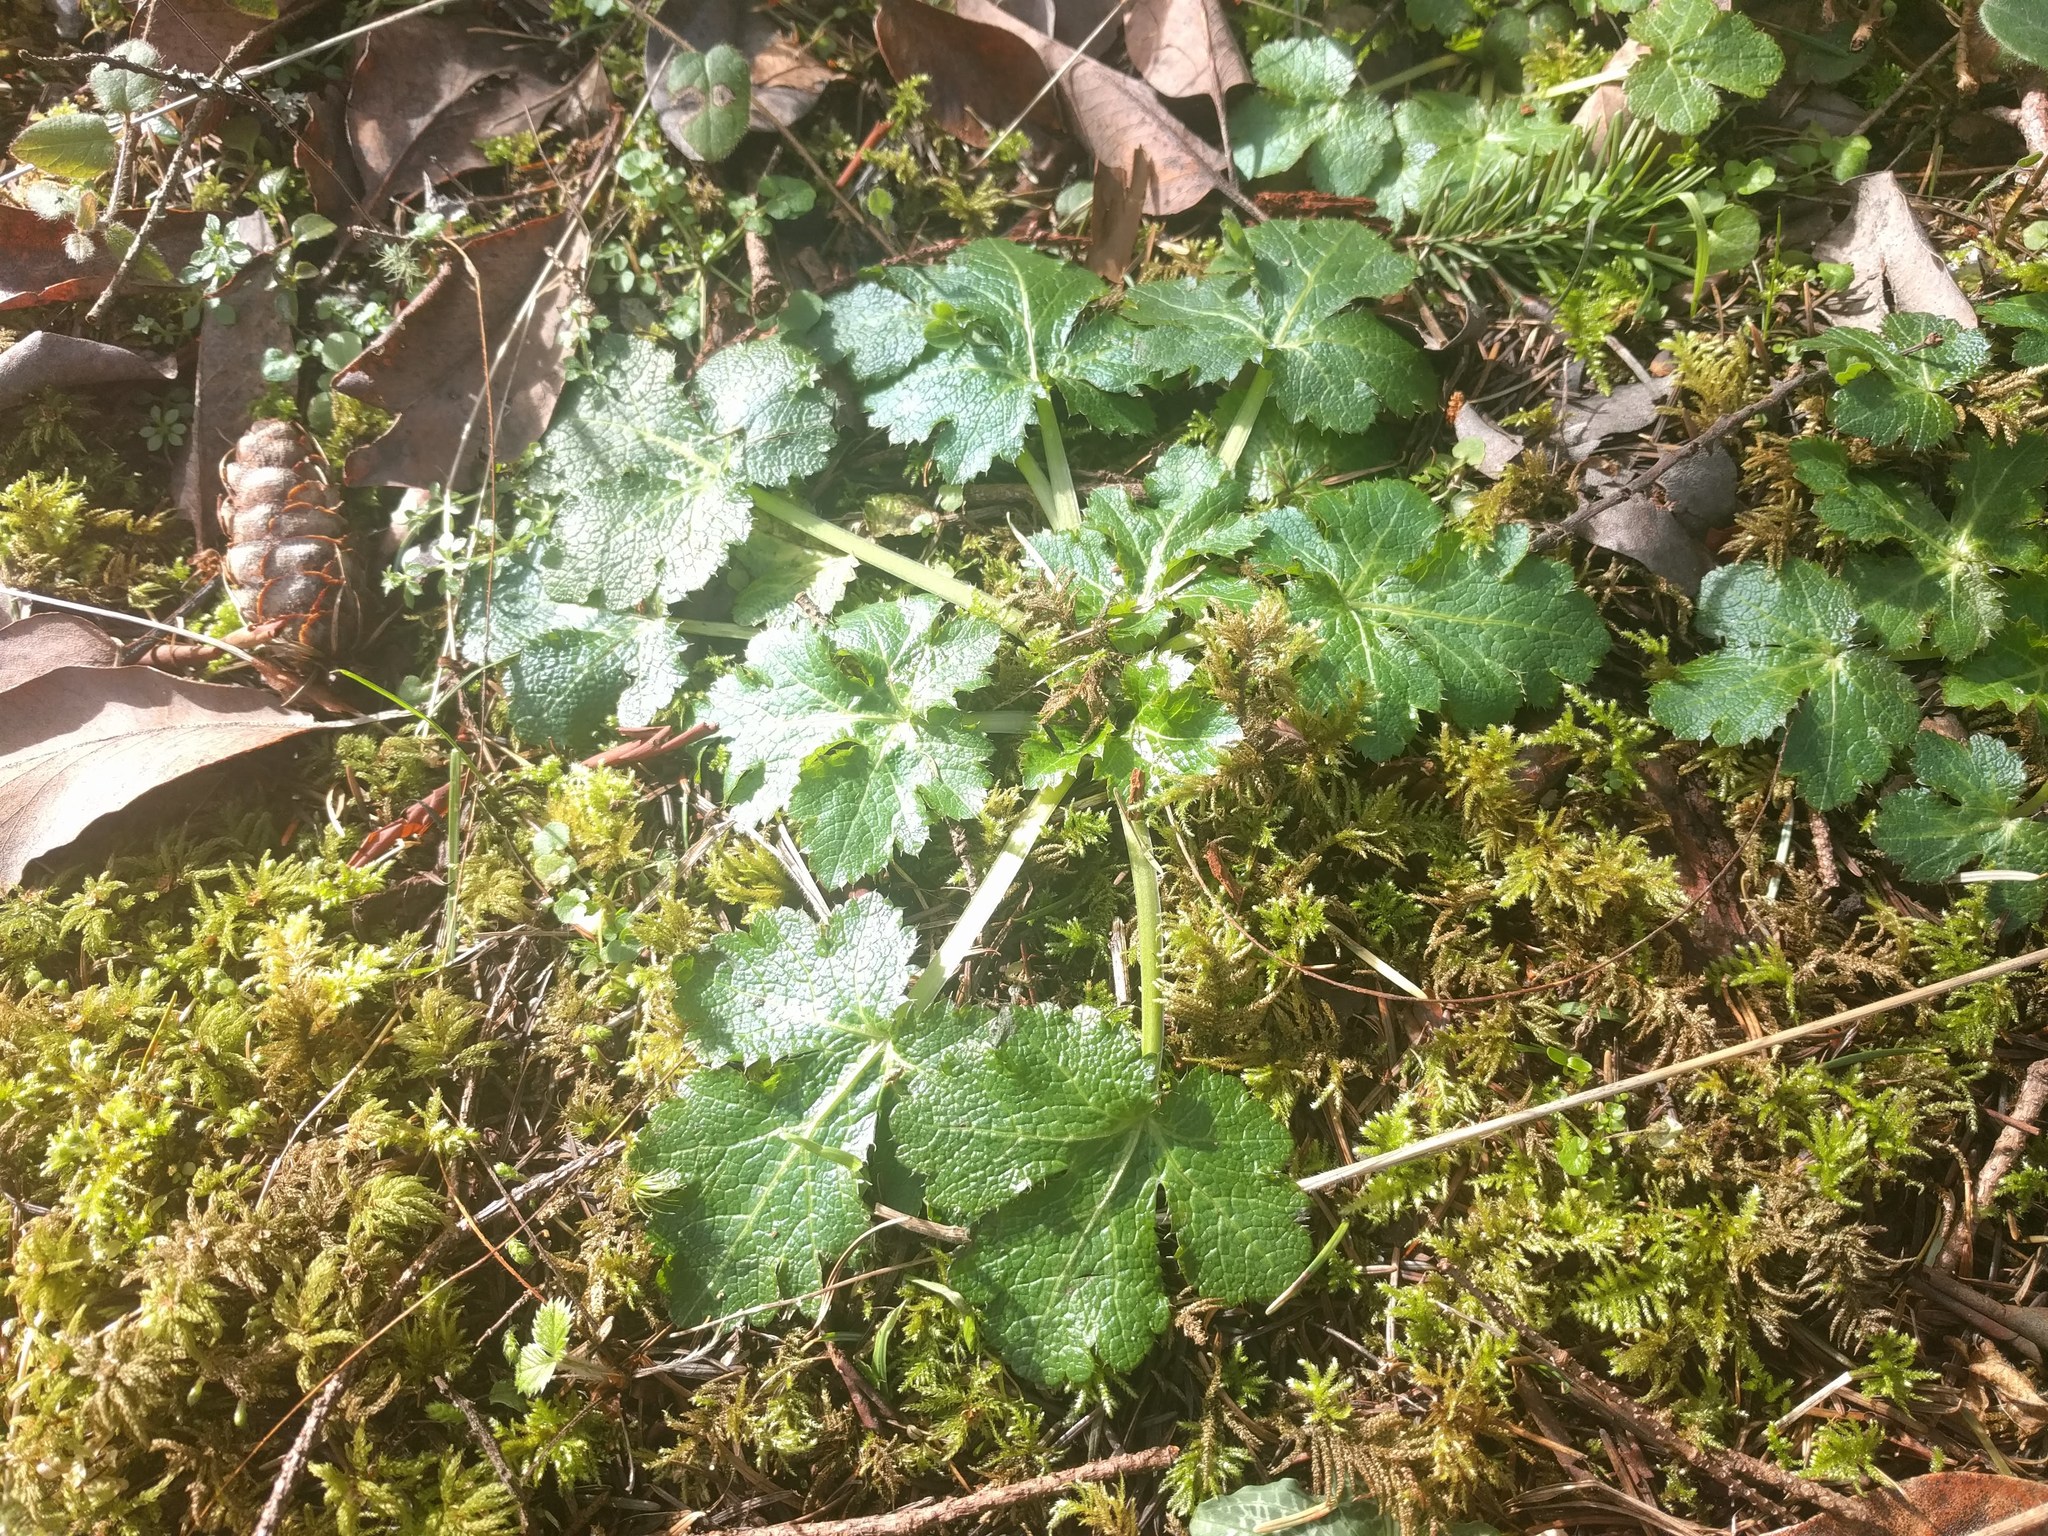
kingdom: Plantae
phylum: Tracheophyta
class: Magnoliopsida
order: Apiales
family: Apiaceae
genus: Sanicula
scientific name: Sanicula crassicaulis
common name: Western snakeroot
